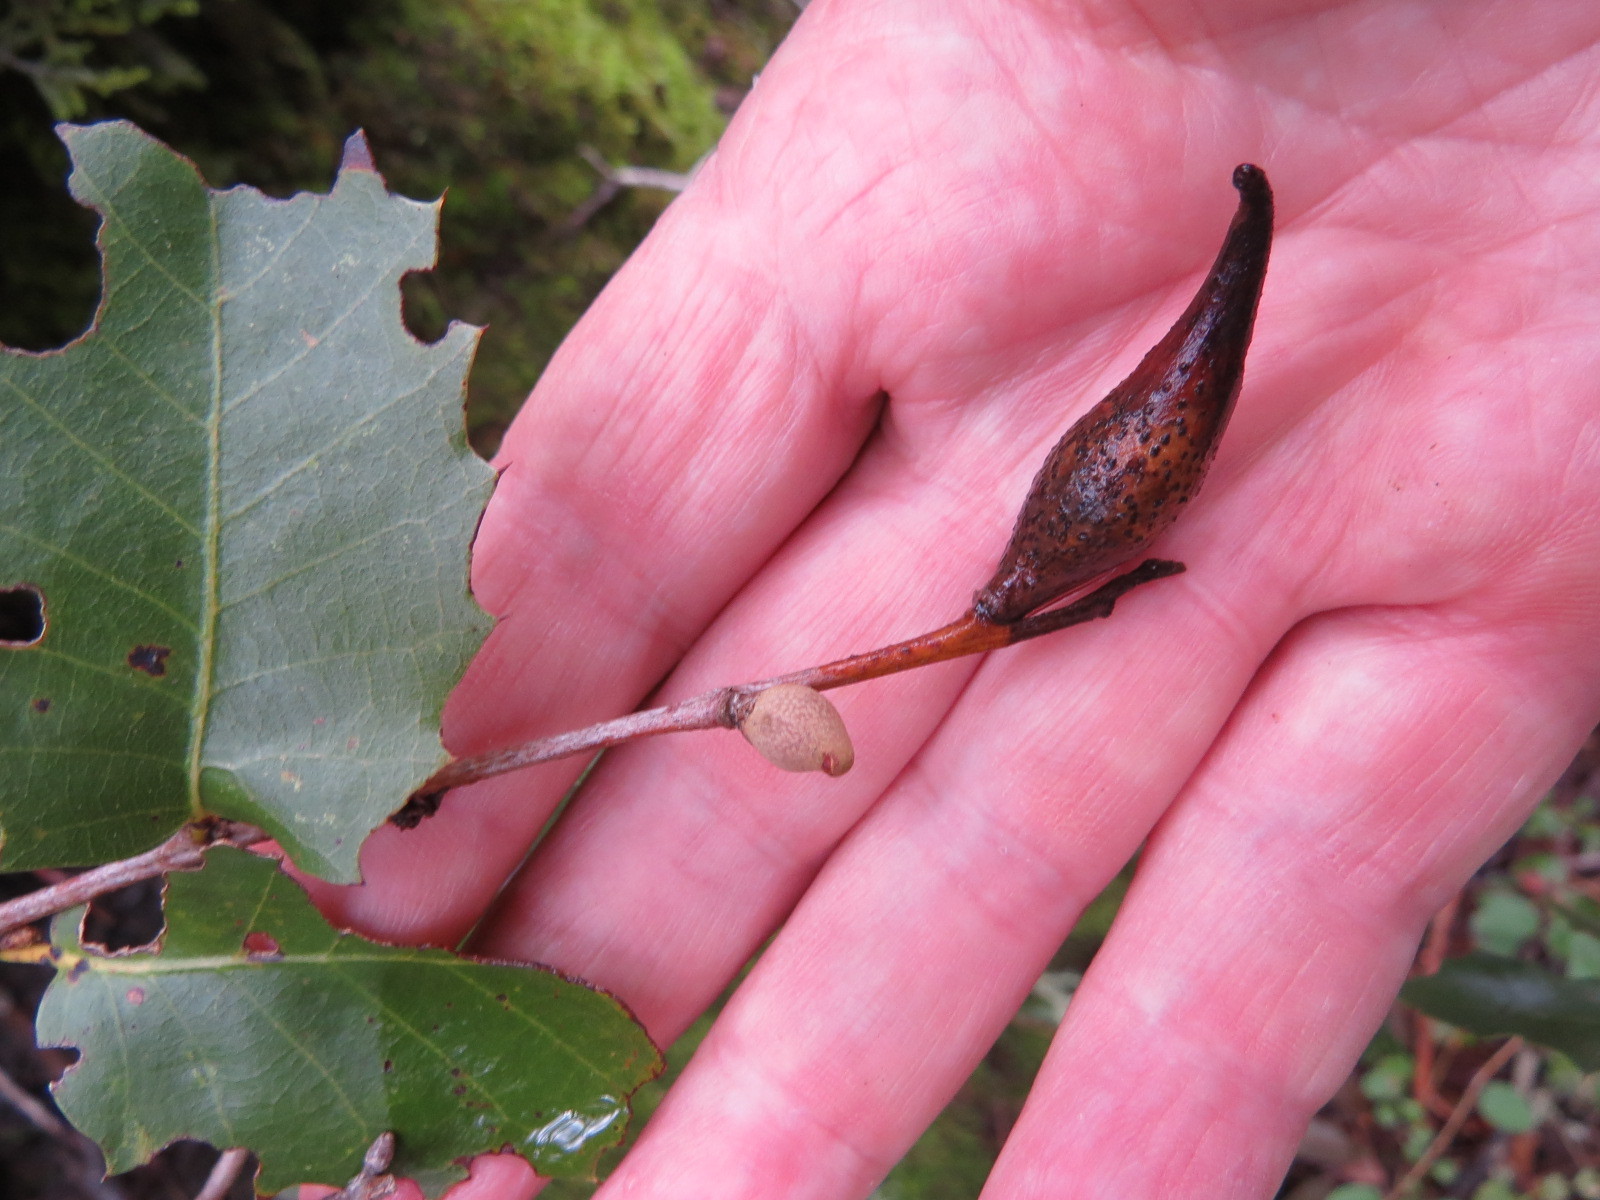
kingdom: Animalia
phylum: Arthropoda
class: Insecta
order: Hymenoptera
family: Cynipidae
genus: Heteroecus
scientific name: Heteroecus pacificus
